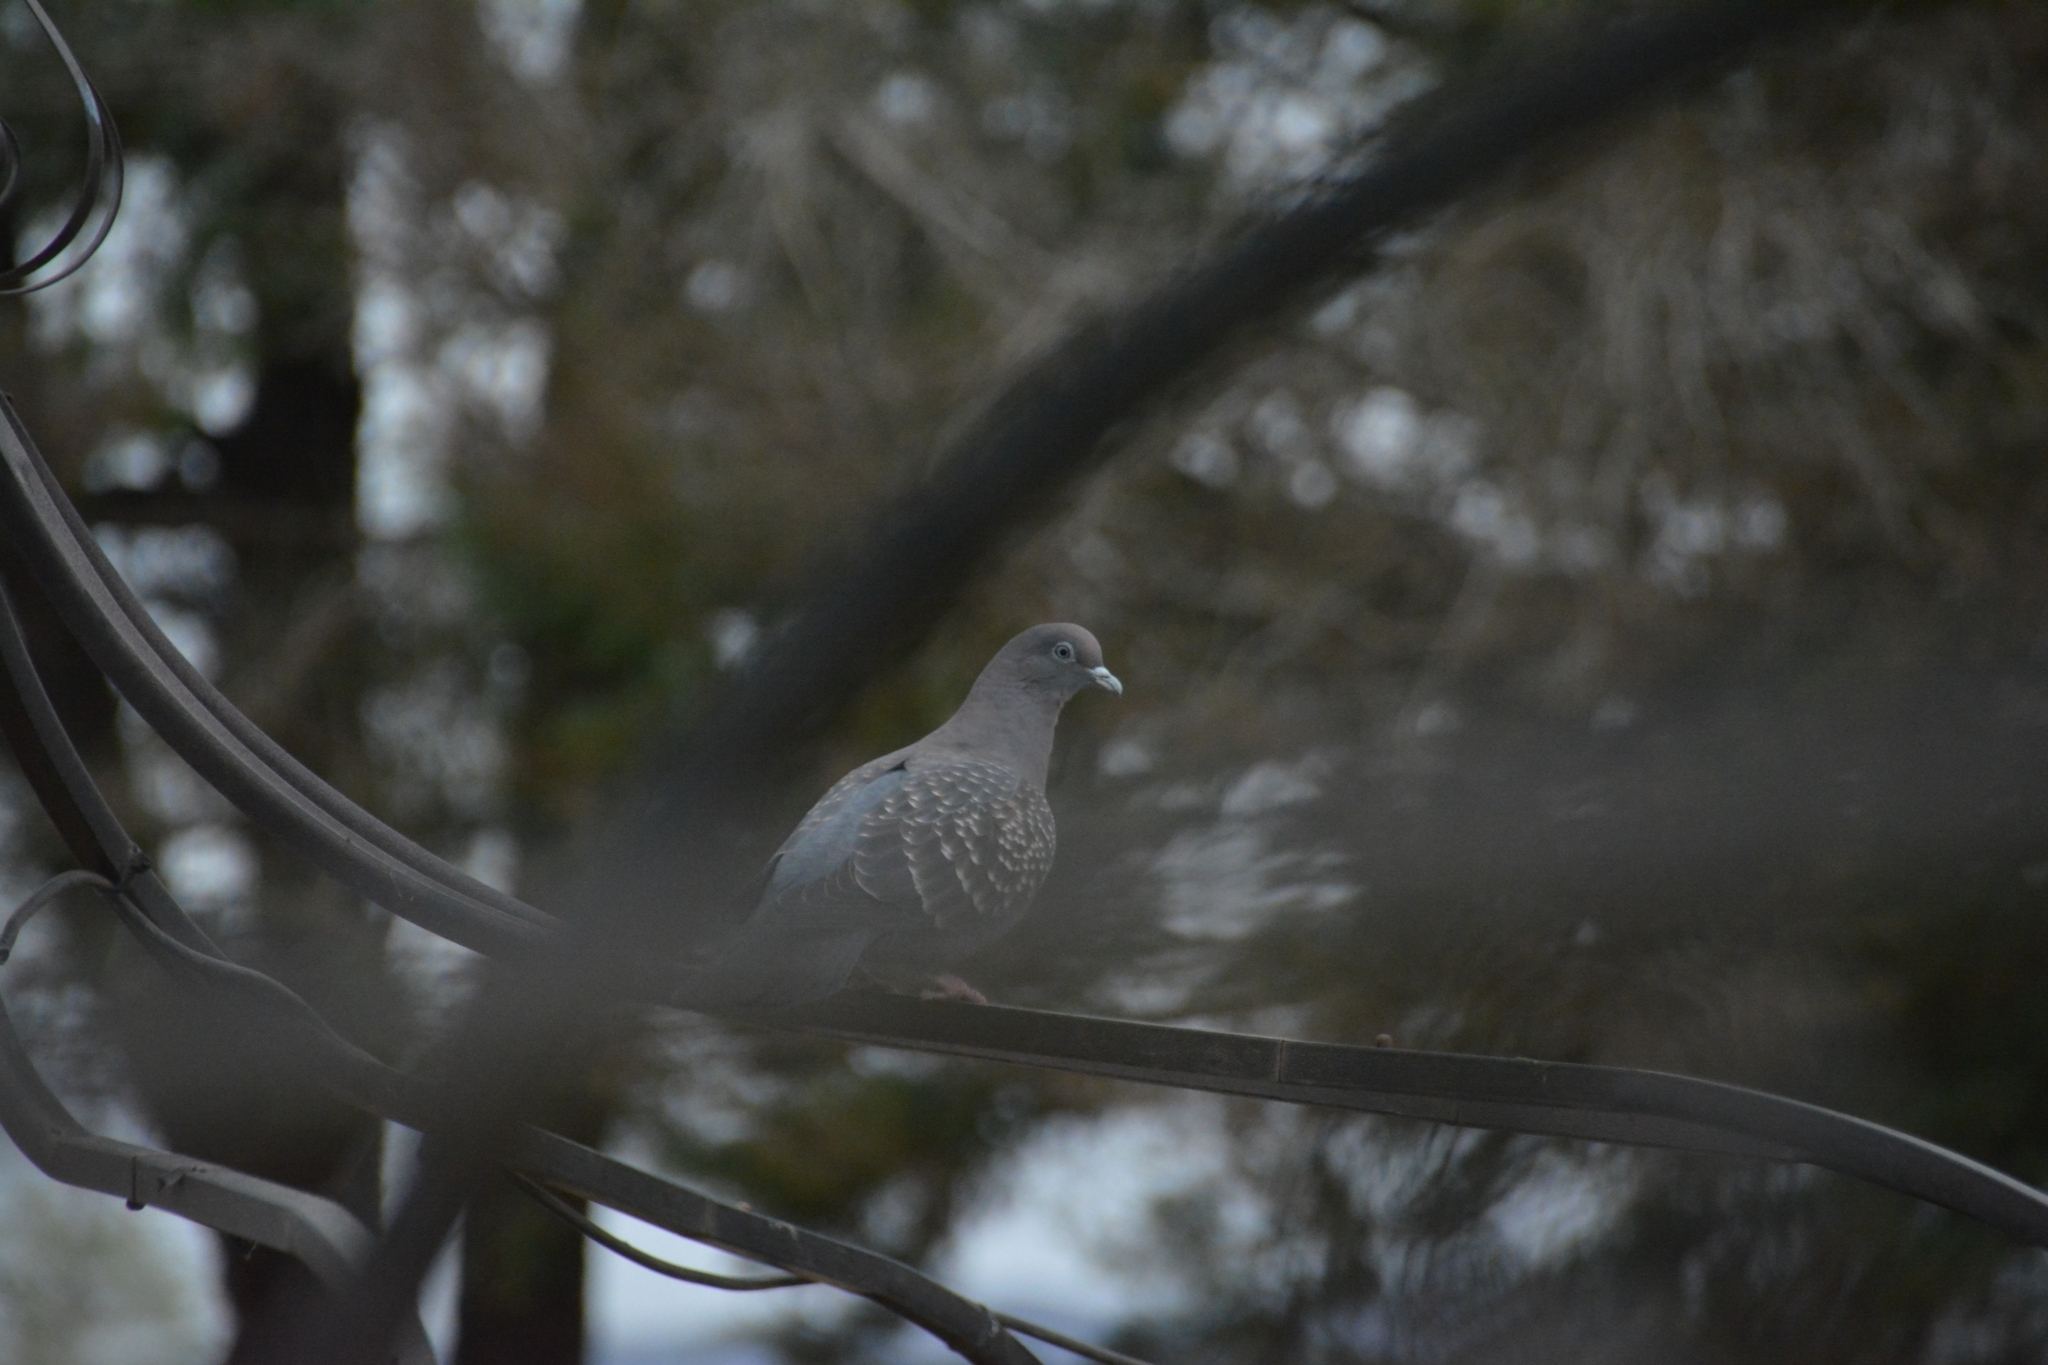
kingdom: Animalia
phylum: Chordata
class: Aves
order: Columbiformes
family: Columbidae
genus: Patagioenas
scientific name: Patagioenas maculosa
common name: Spot-winged pigeon
